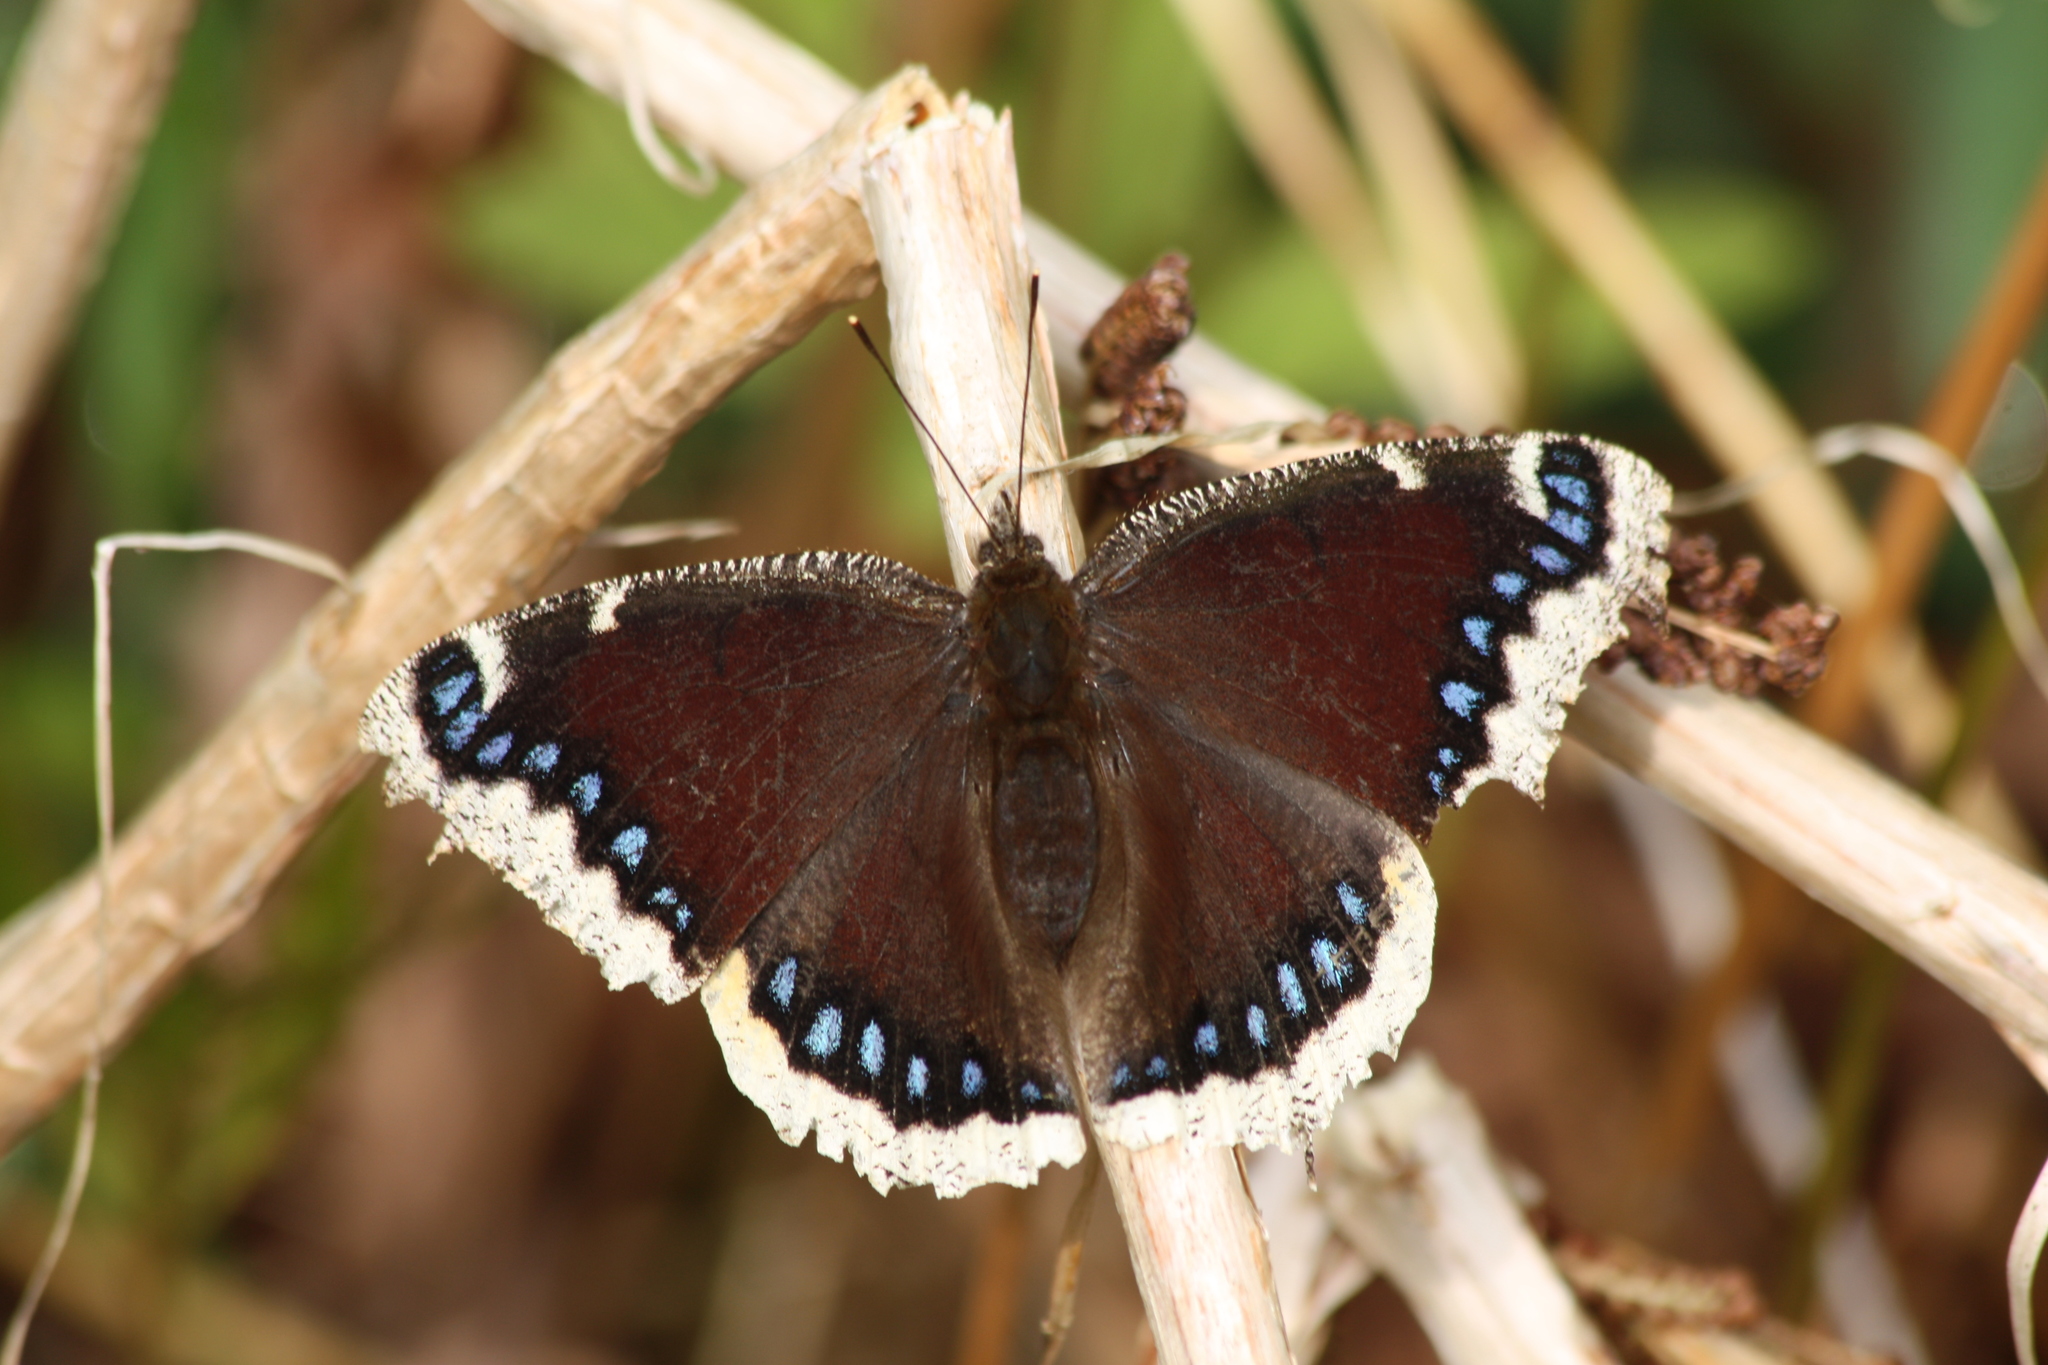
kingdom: Animalia
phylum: Arthropoda
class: Insecta
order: Lepidoptera
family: Nymphalidae
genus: Nymphalis
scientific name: Nymphalis antiopa
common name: Camberwell beauty
